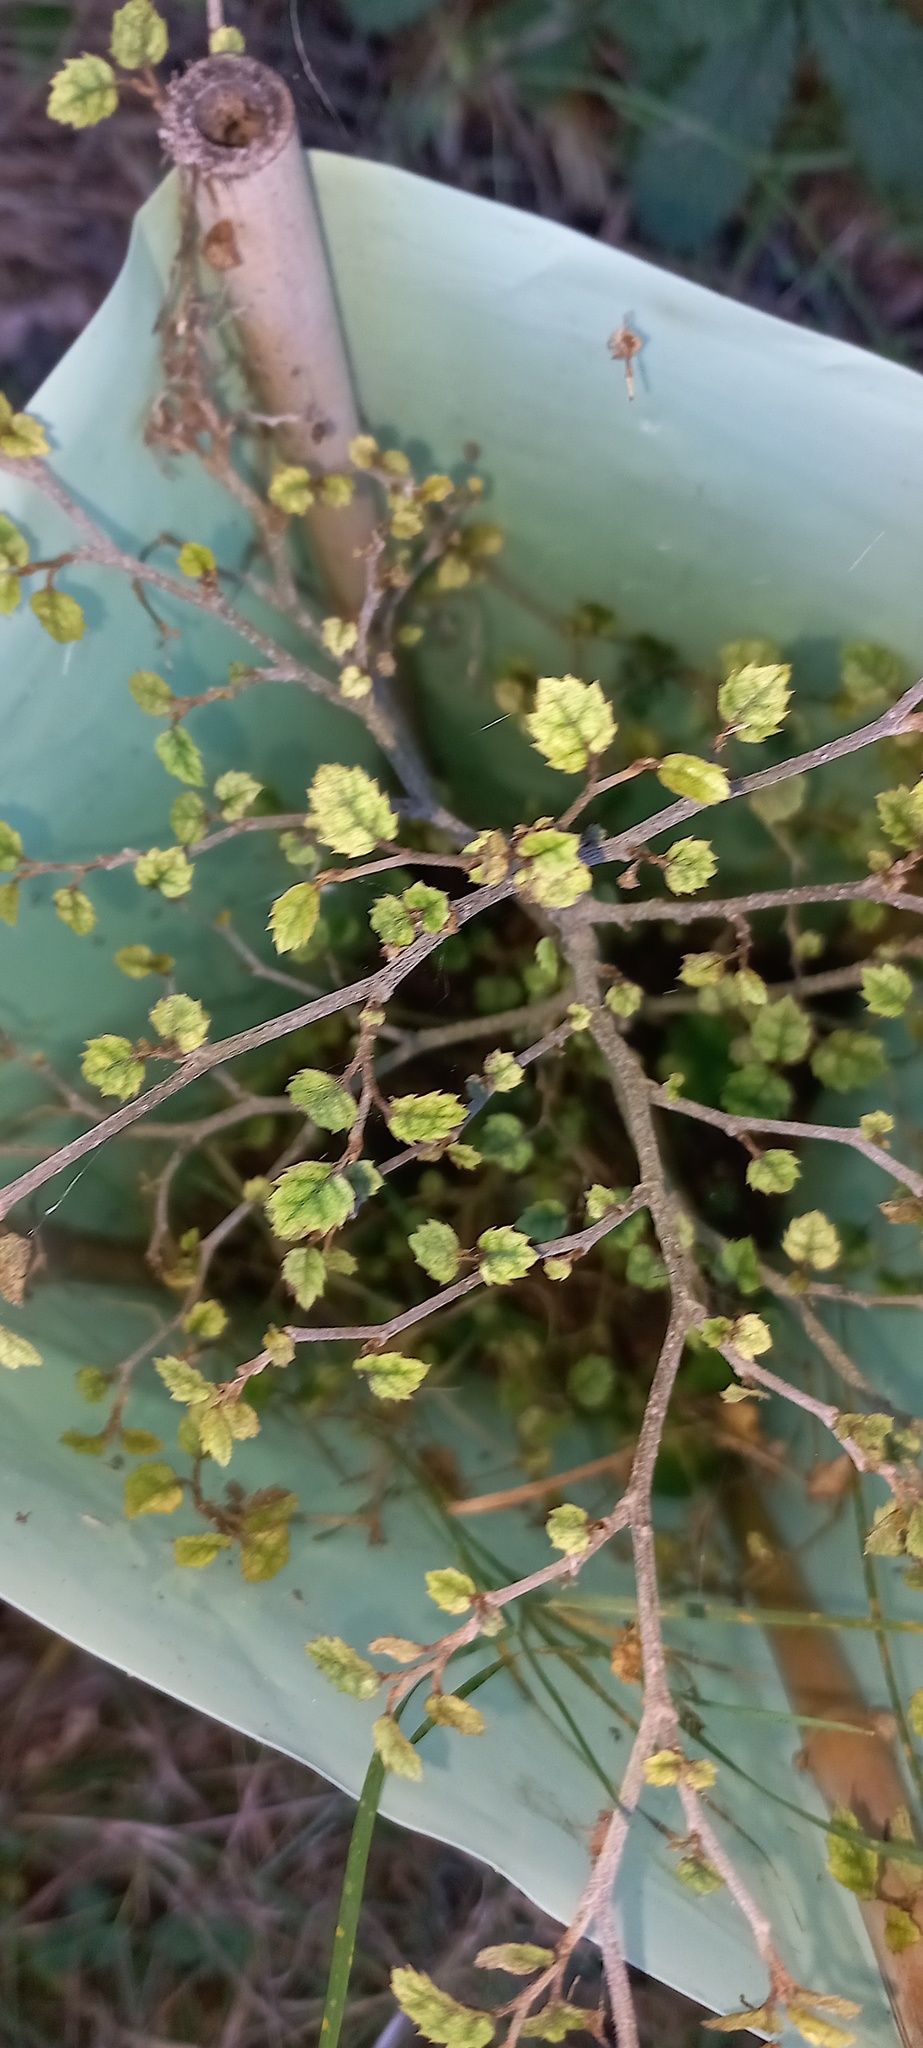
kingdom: Plantae
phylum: Tracheophyta
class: Magnoliopsida
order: Asterales
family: Rousseaceae
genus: Carpodetus
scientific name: Carpodetus serratus
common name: White mapau
